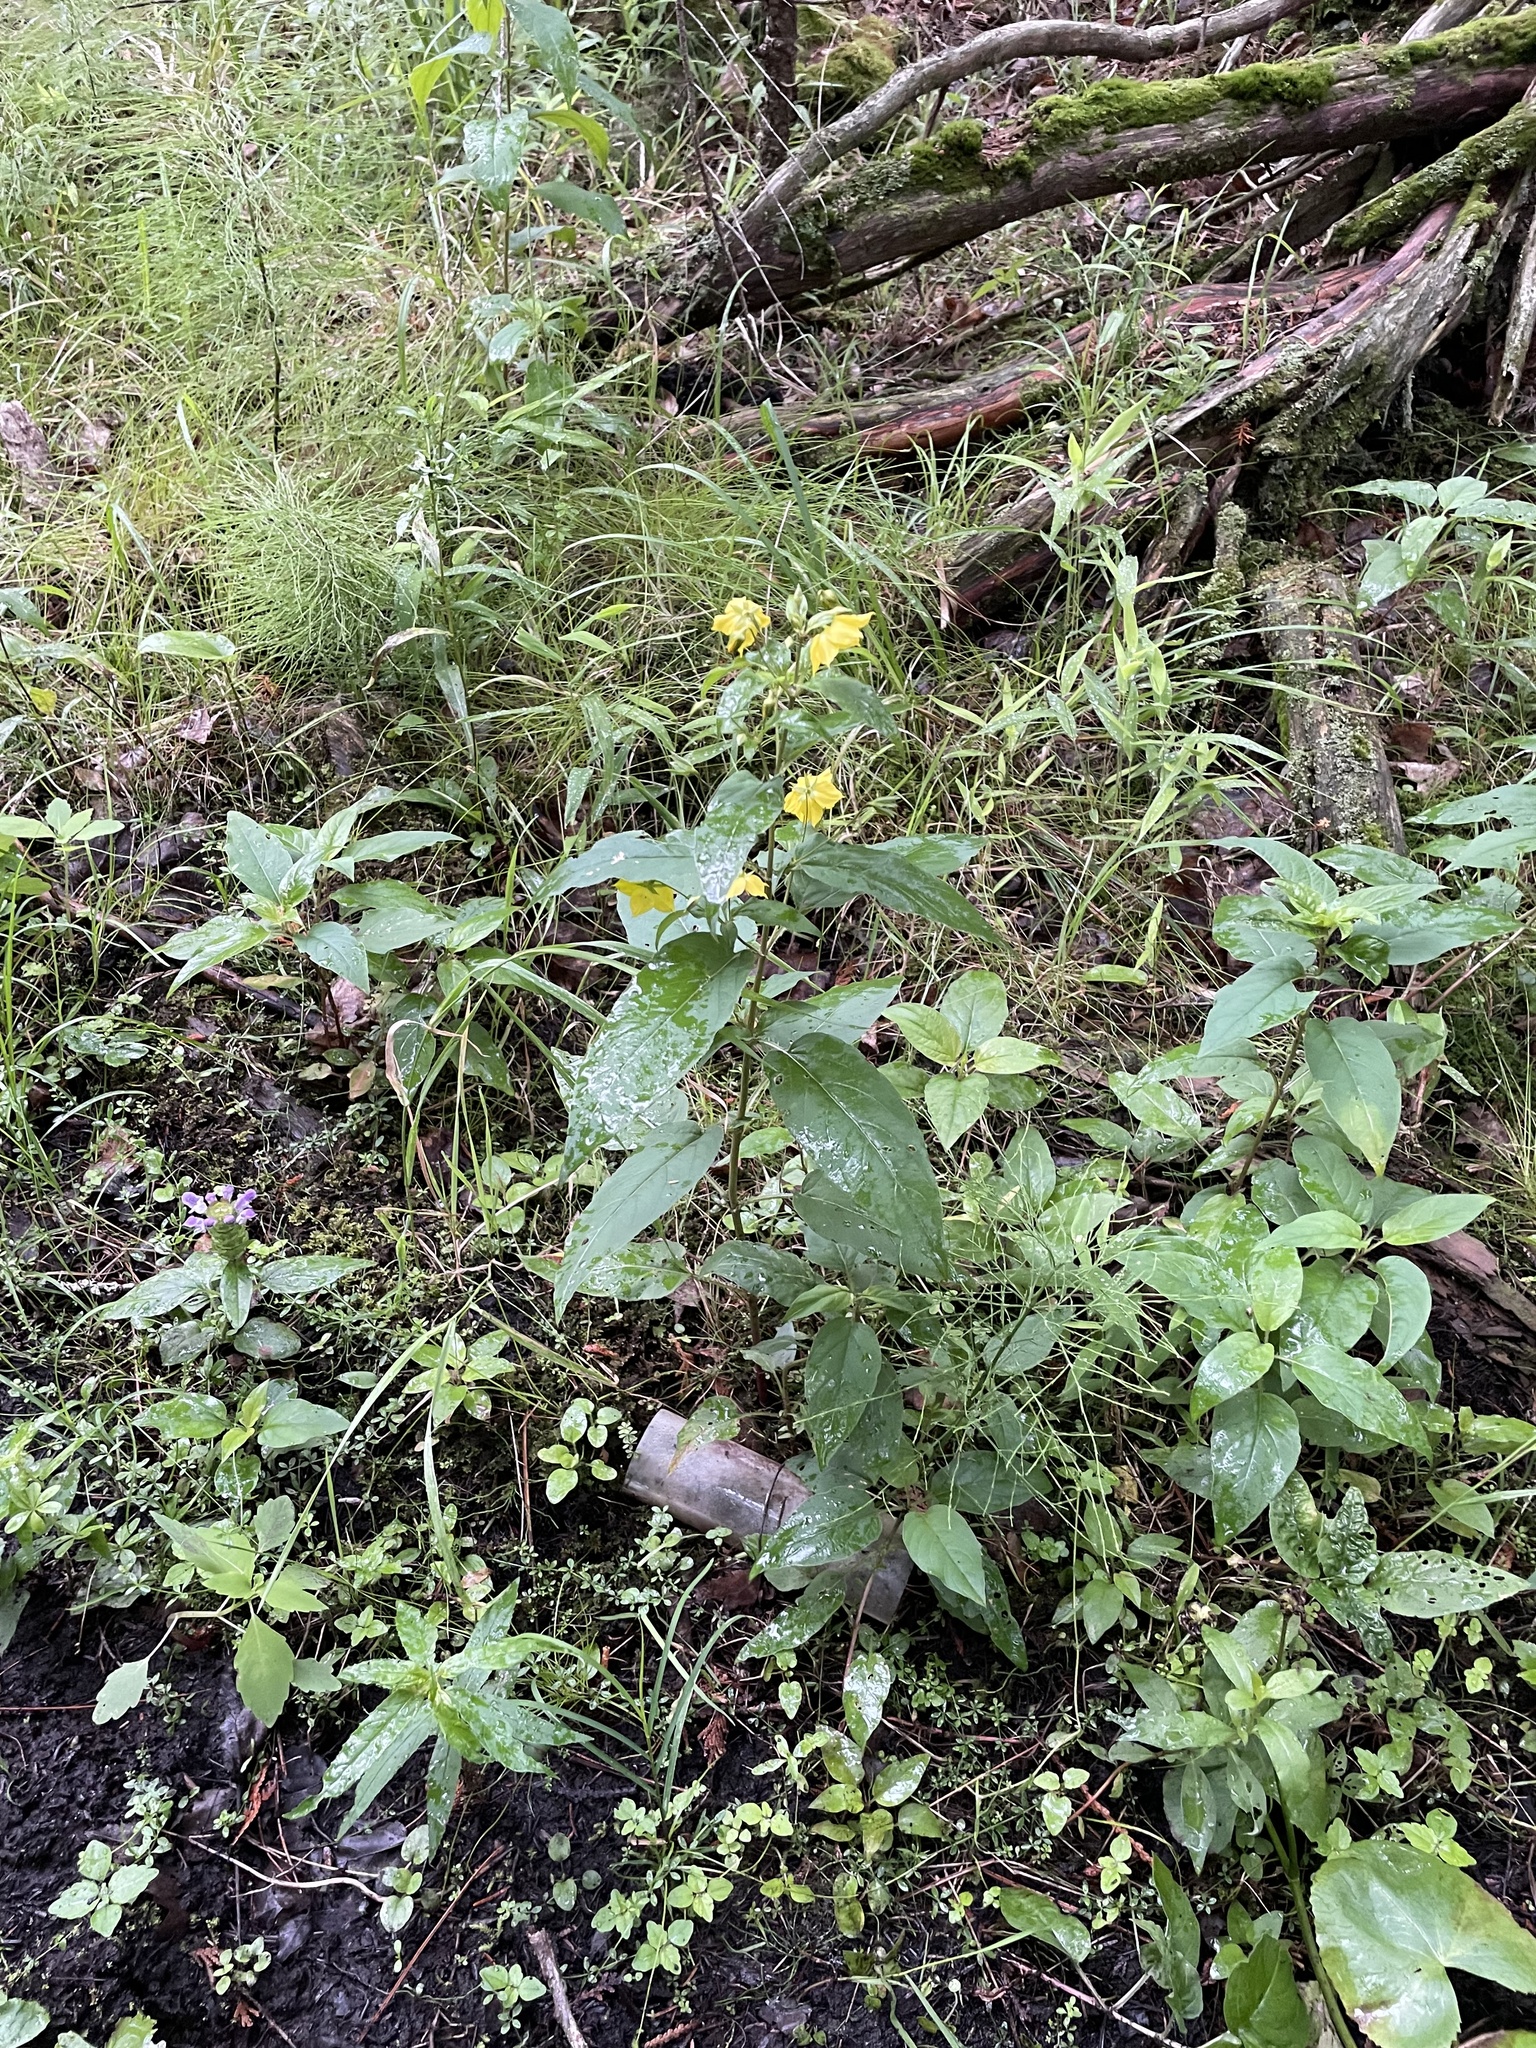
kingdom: Plantae
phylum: Tracheophyta
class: Magnoliopsida
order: Ericales
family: Primulaceae
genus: Lysimachia
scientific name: Lysimachia ciliata
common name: Fringed loosestrife
